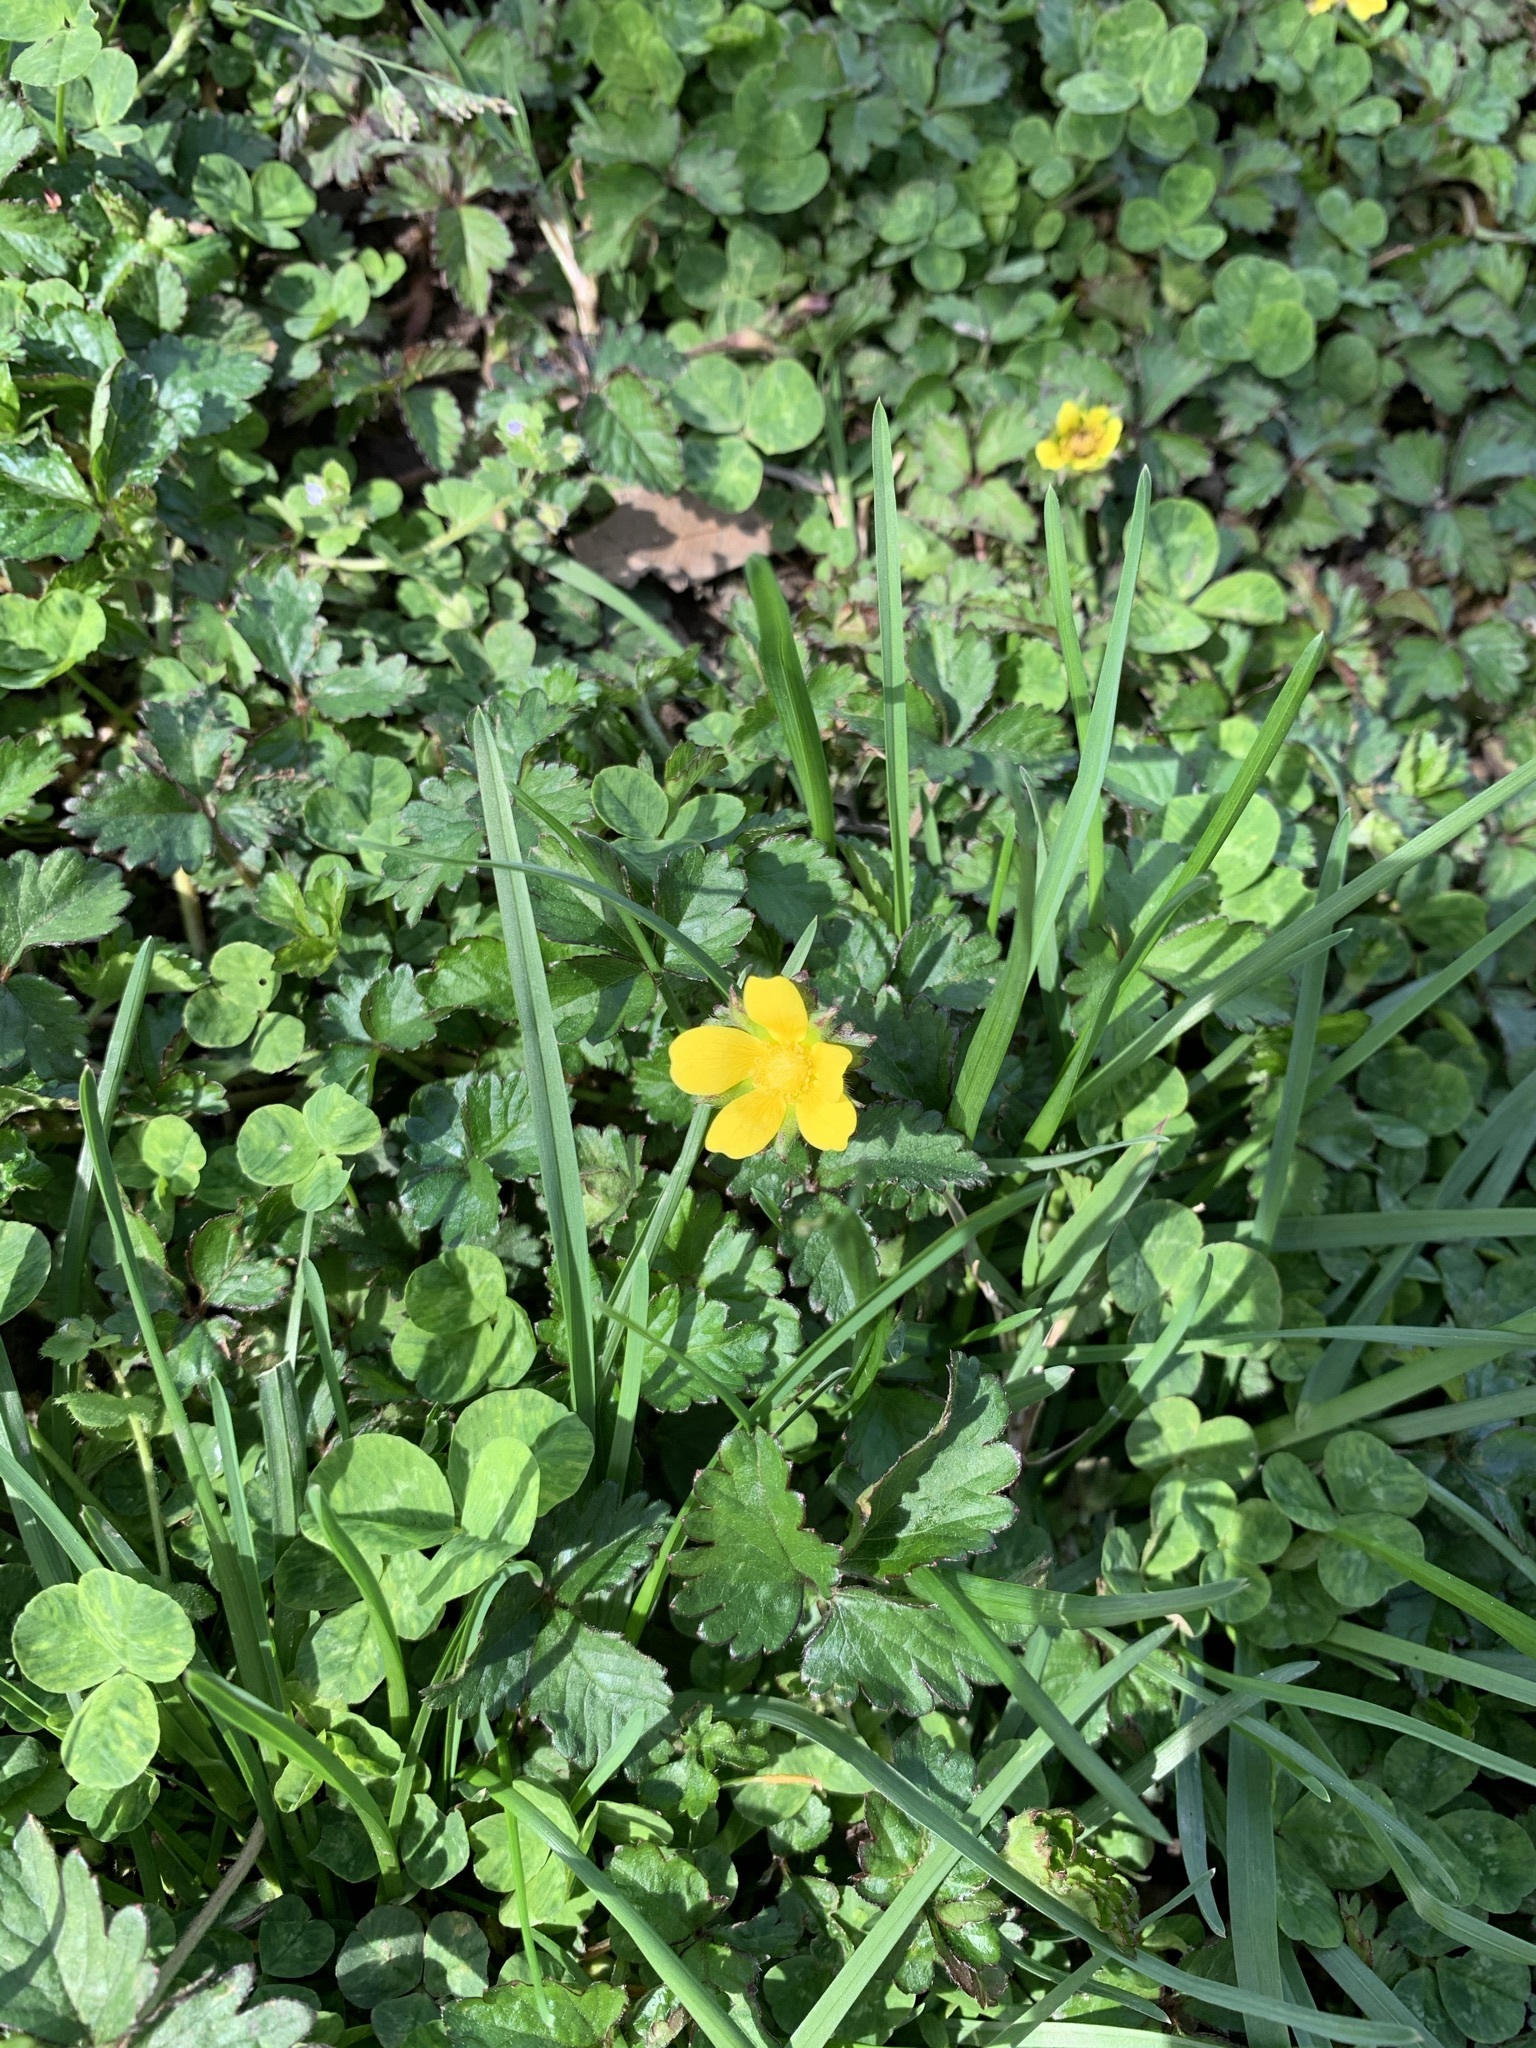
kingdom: Plantae
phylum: Tracheophyta
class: Magnoliopsida
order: Rosales
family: Rosaceae
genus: Potentilla
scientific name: Potentilla indica
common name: Yellow-flowered strawberry
